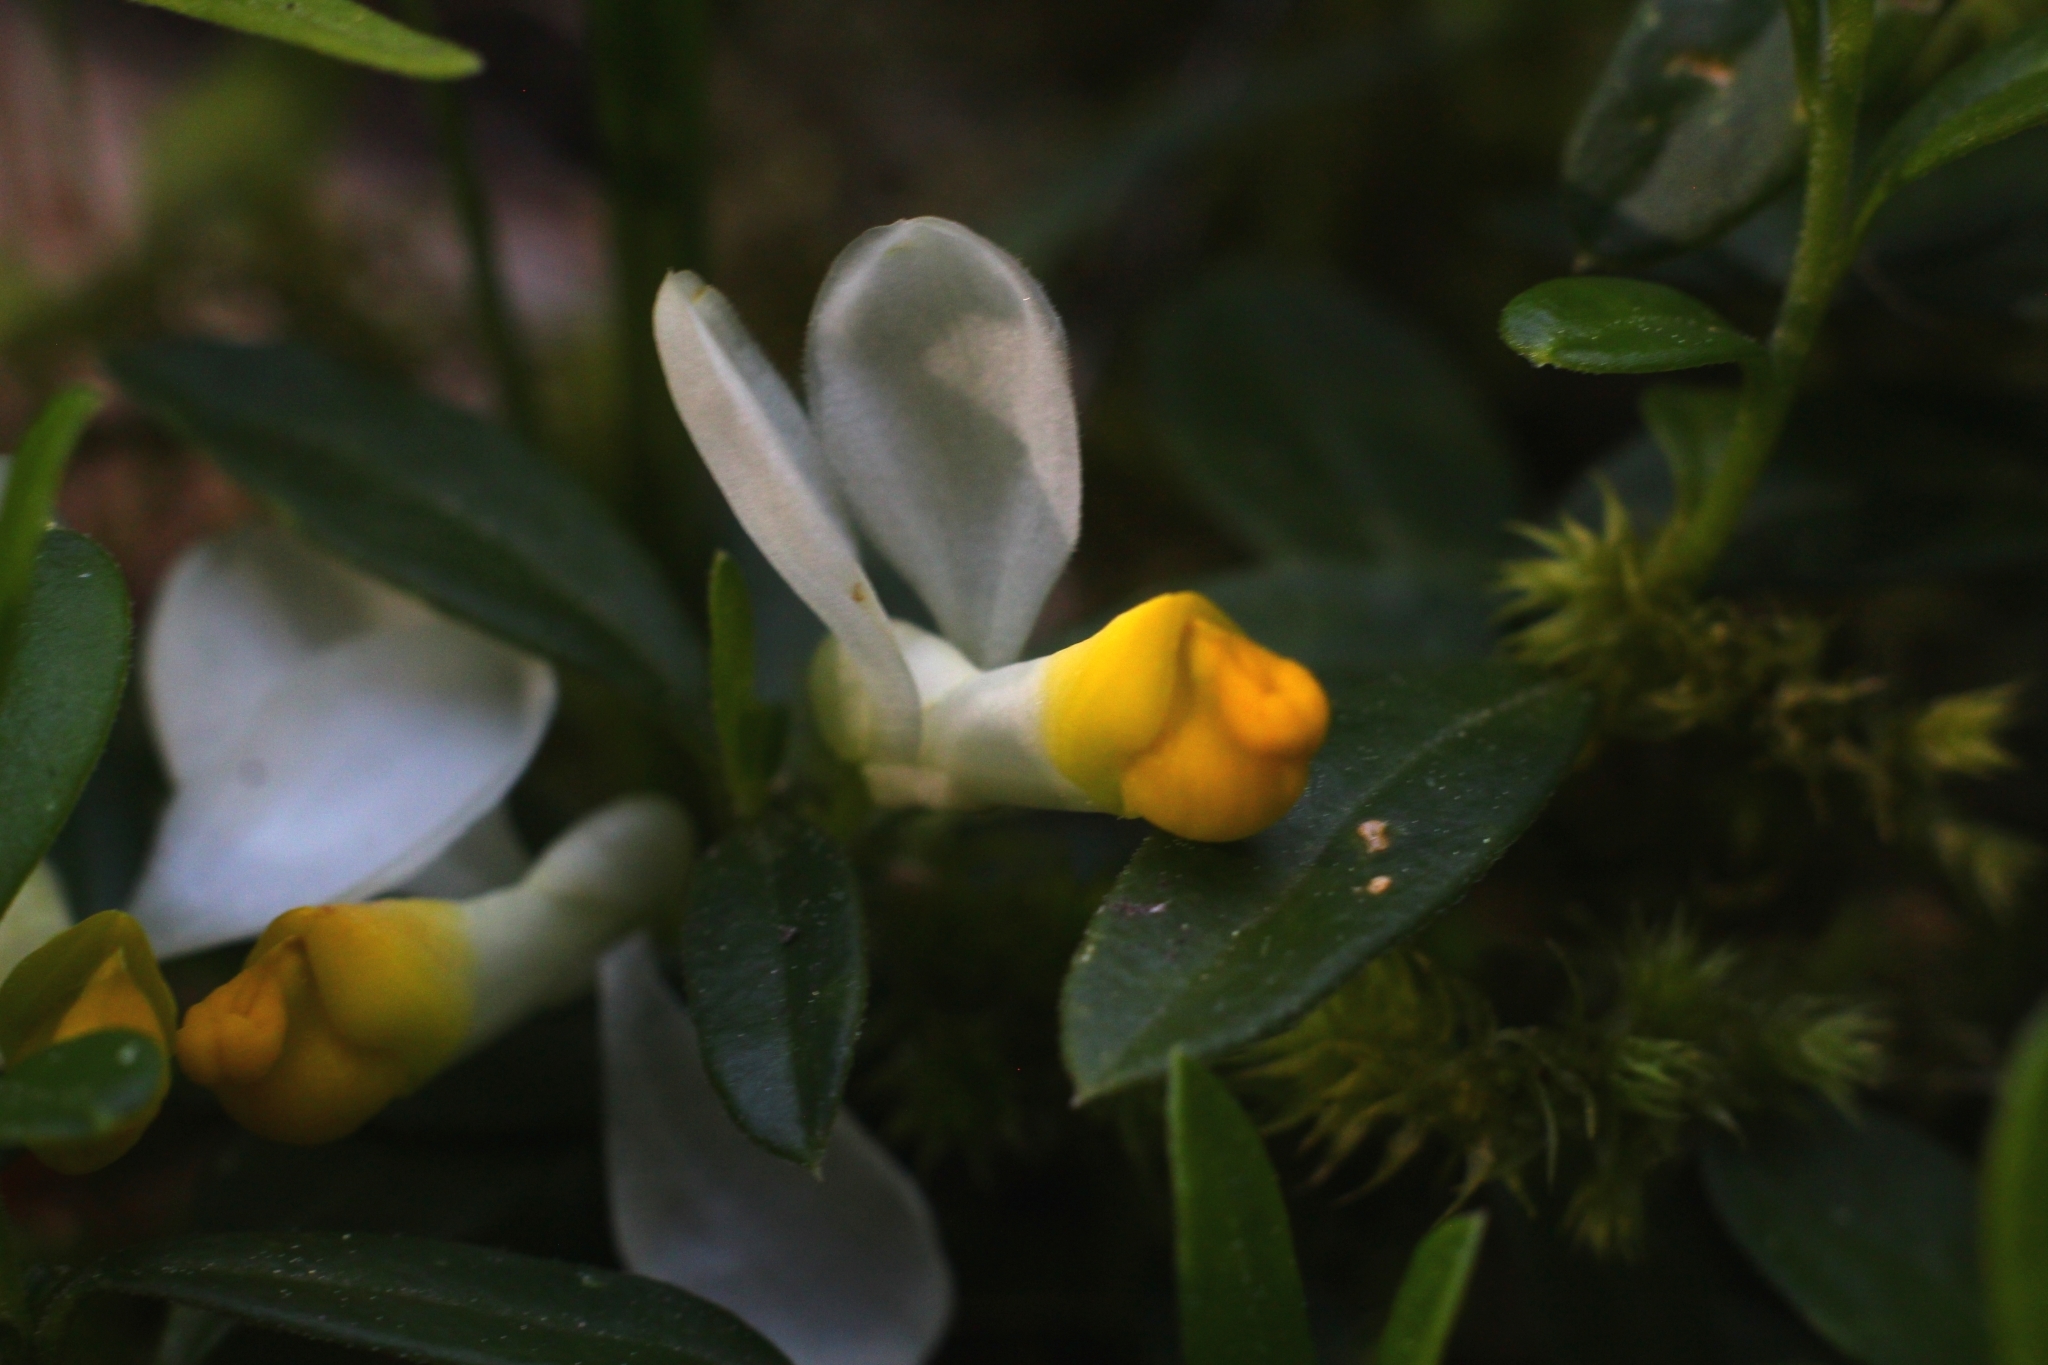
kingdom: Plantae
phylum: Tracheophyta
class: Magnoliopsida
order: Fabales
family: Polygalaceae
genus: Polygaloides
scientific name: Polygaloides chamaebuxus
